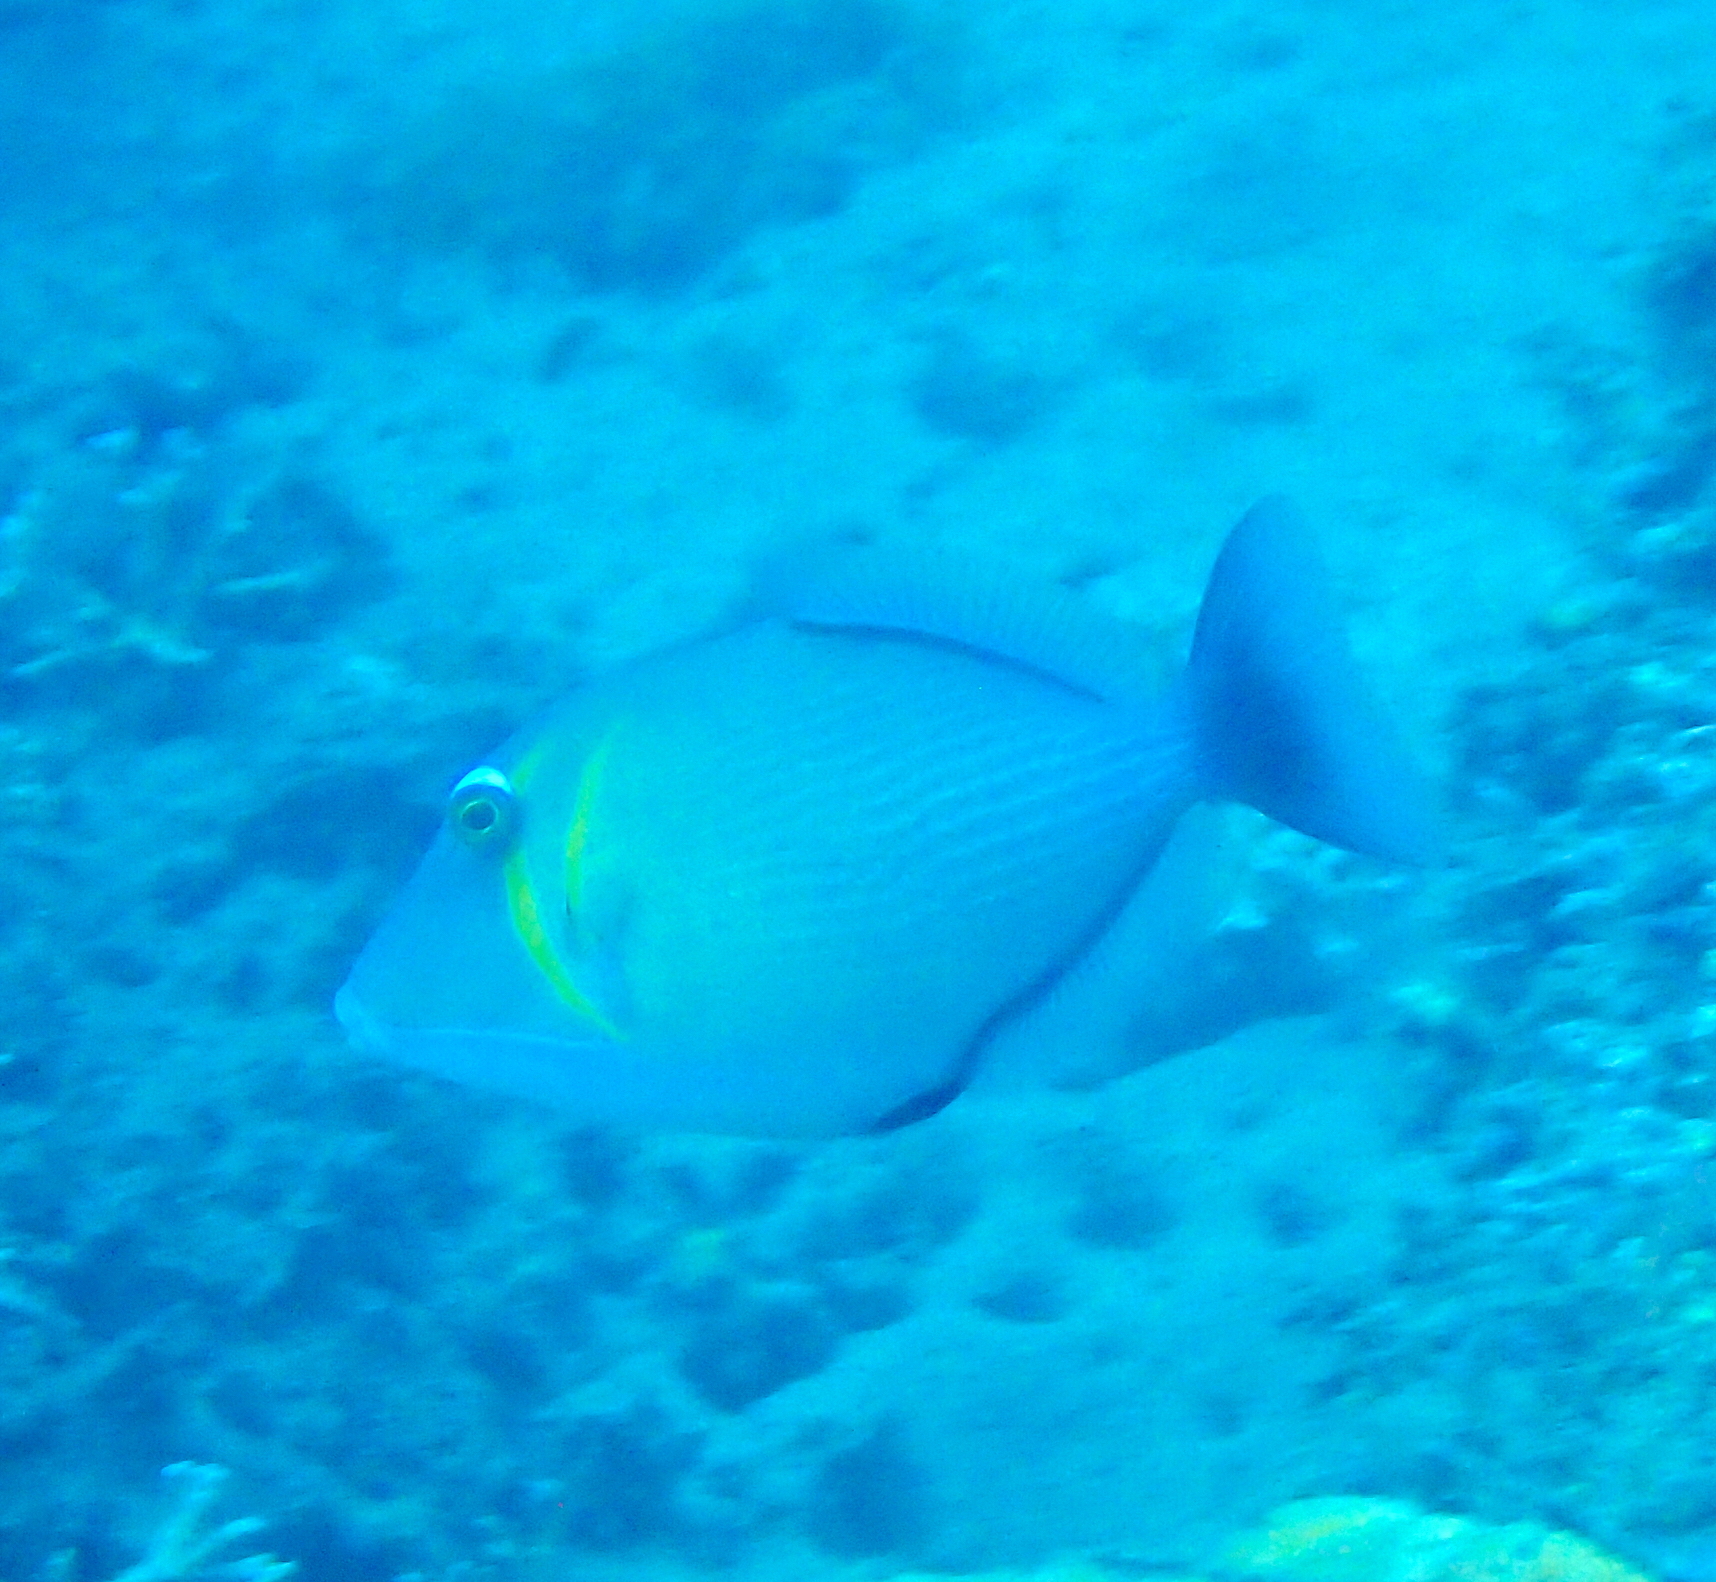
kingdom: Animalia
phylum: Chordata
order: Tetraodontiformes
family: Balistidae
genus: Sufflamen
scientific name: Sufflamen bursa
